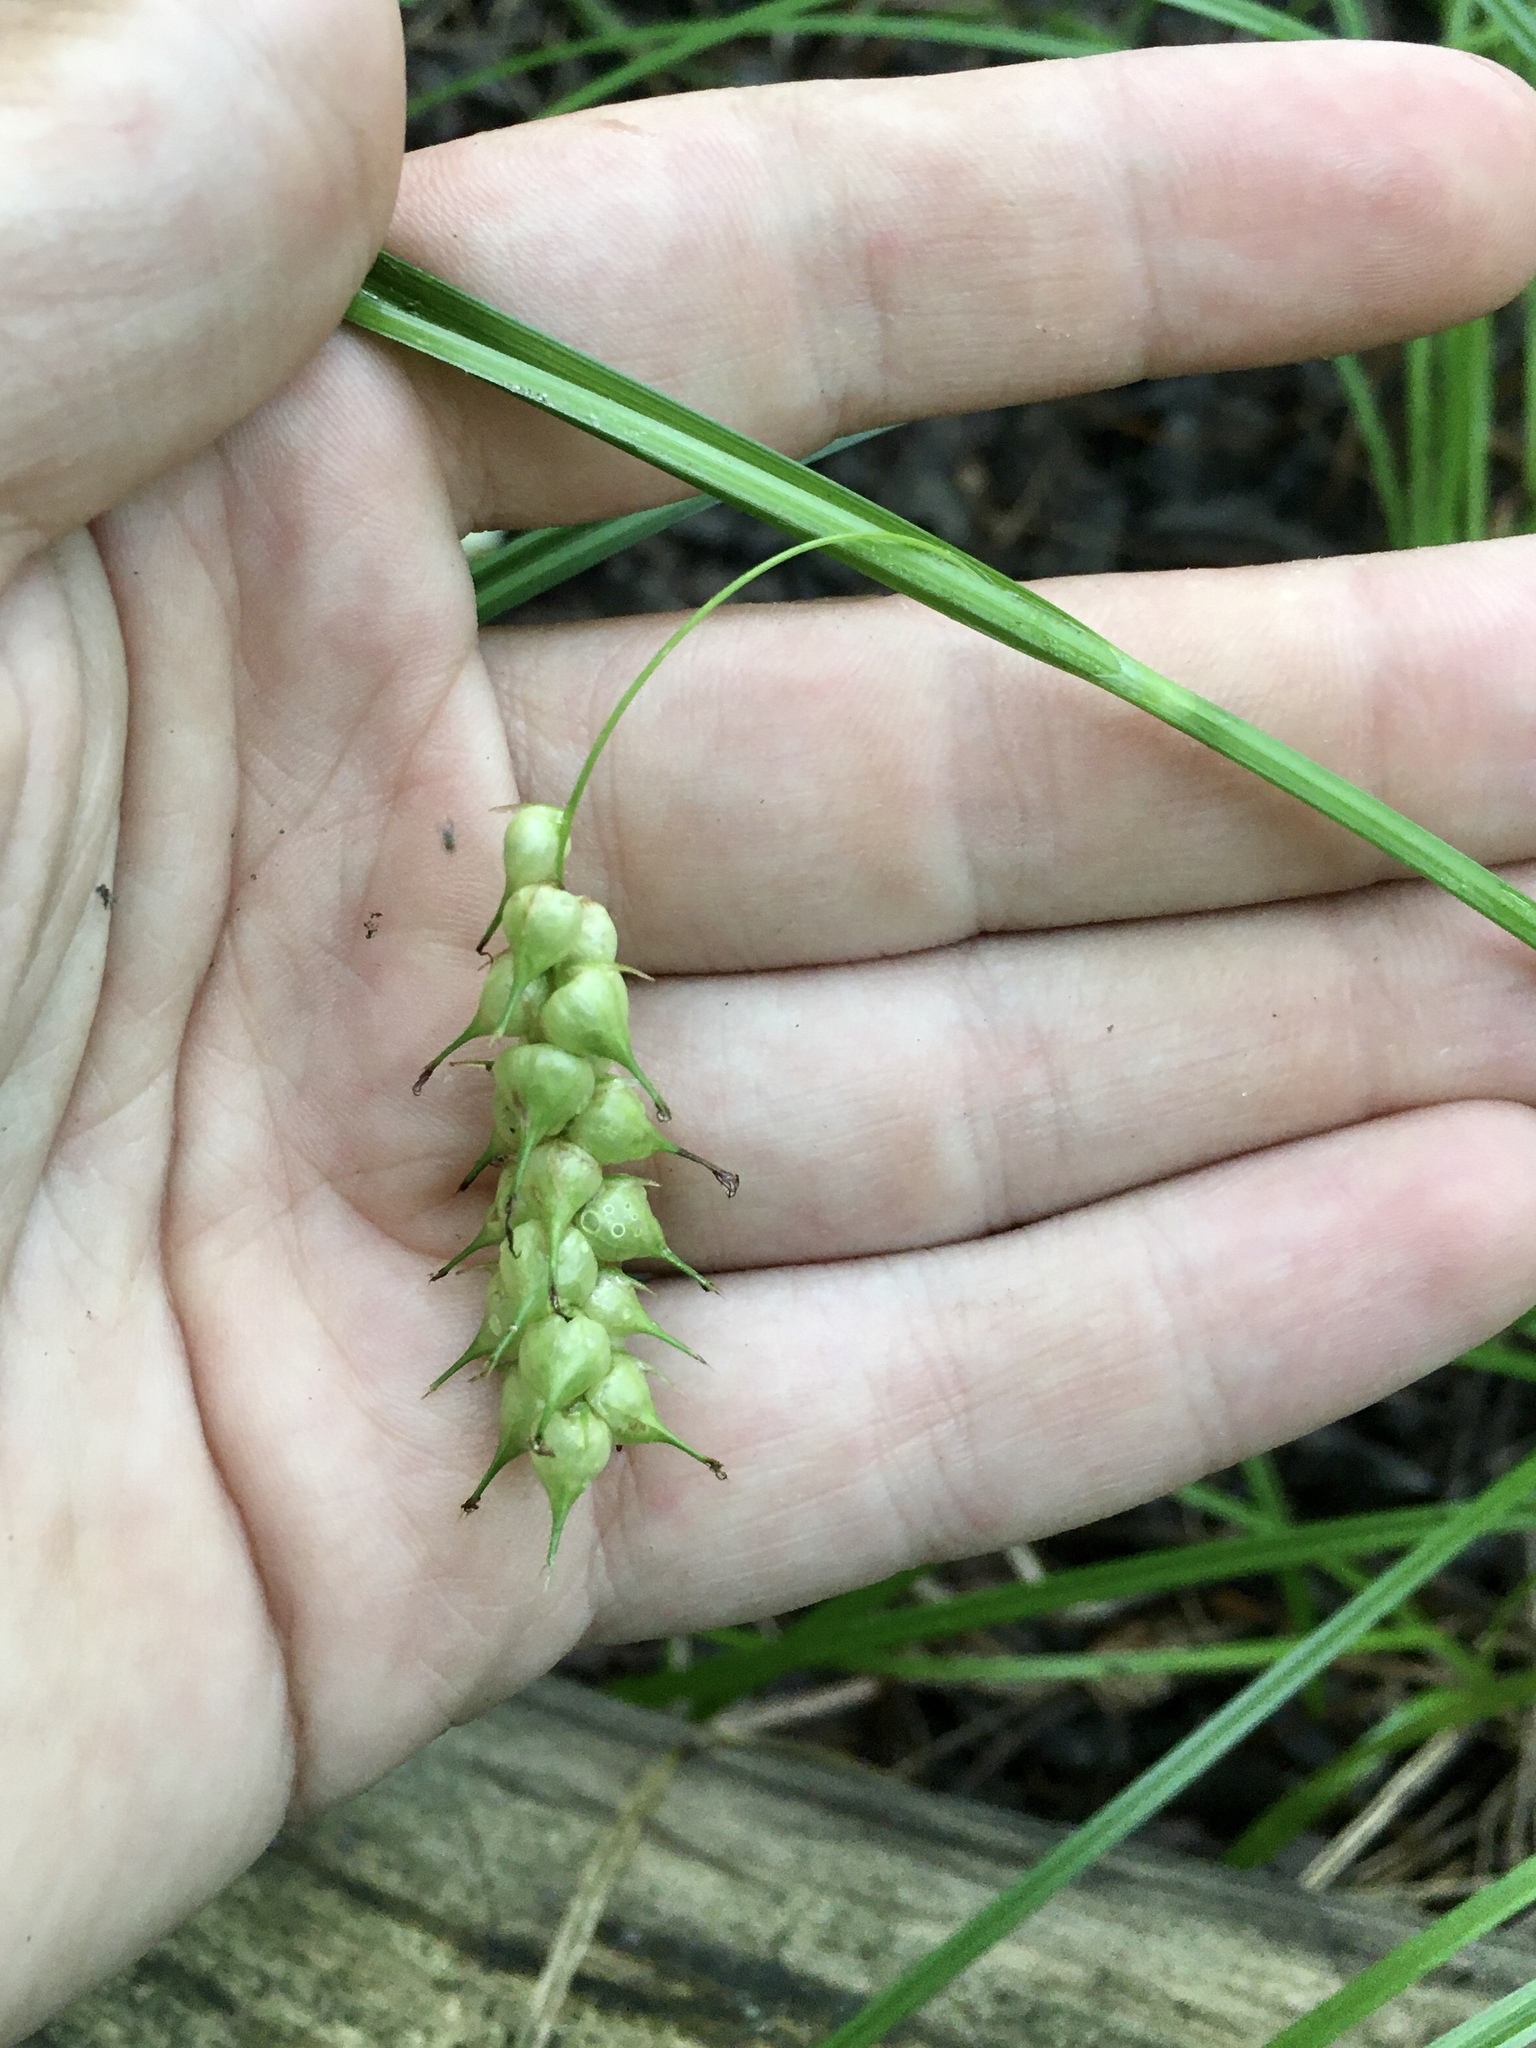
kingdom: Plantae
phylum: Tracheophyta
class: Liliopsida
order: Poales
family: Cyperaceae
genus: Carex
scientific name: Carex tuckermanii
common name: Tuckerman's sedge
